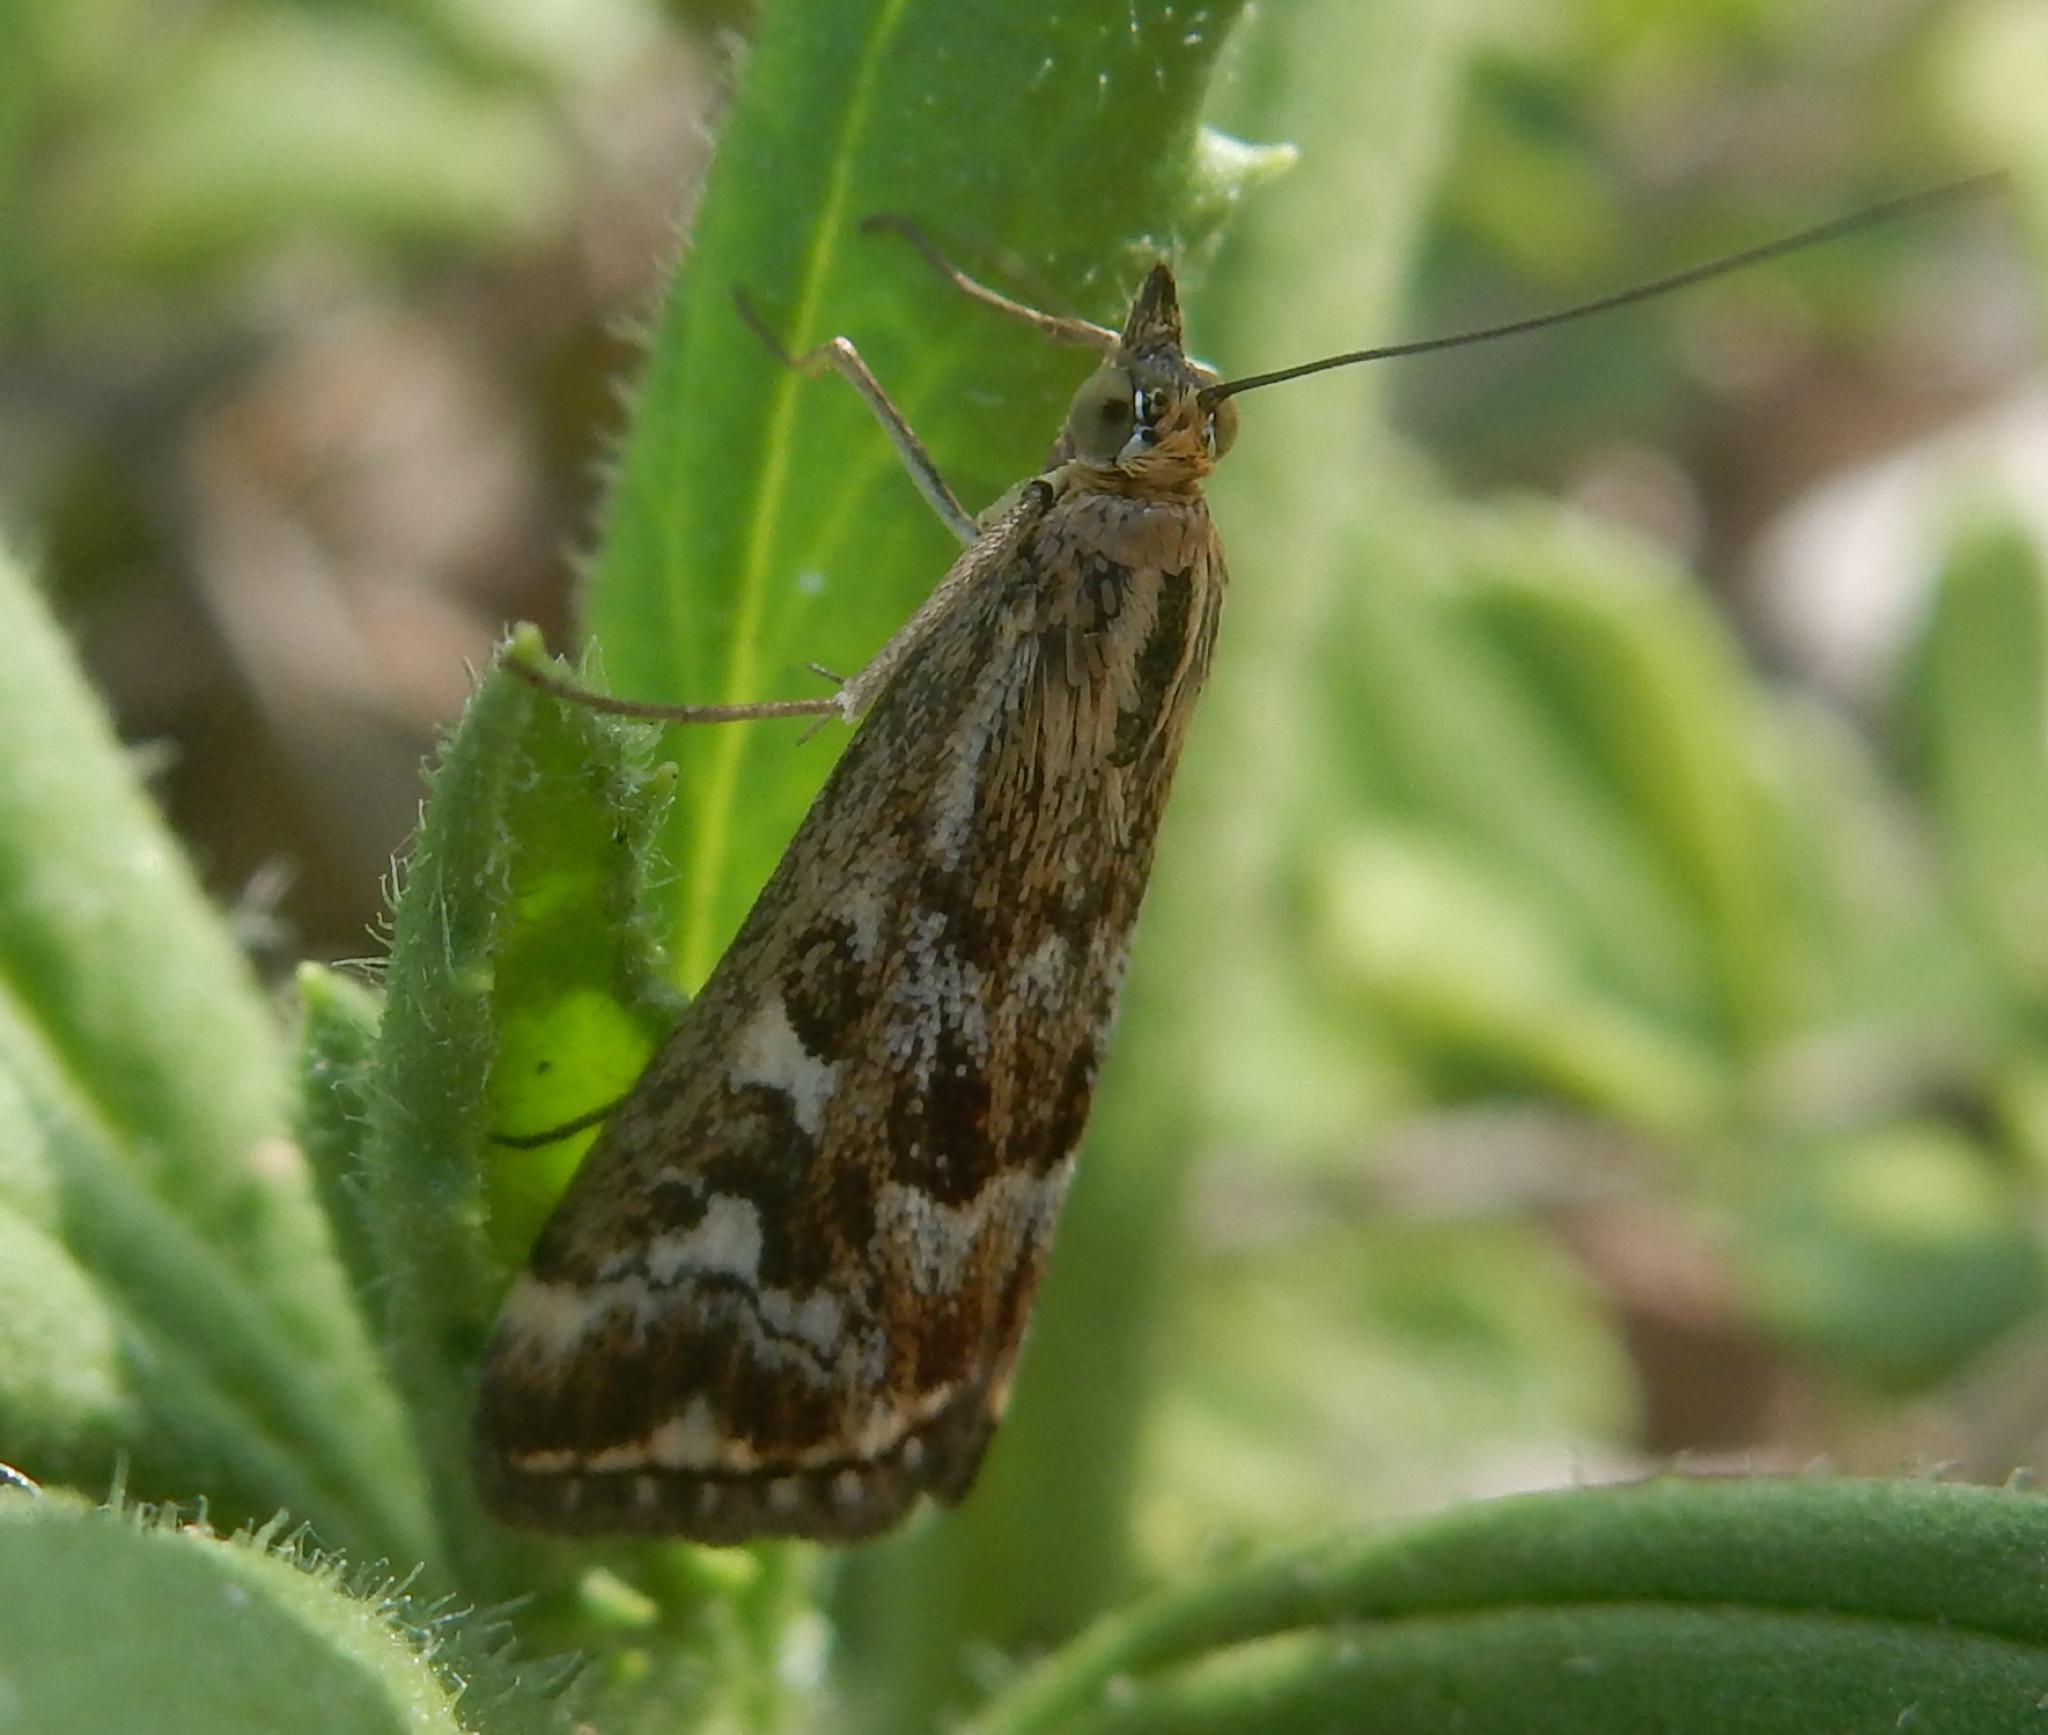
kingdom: Animalia
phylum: Arthropoda
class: Insecta
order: Lepidoptera
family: Crambidae
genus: Loxostege
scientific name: Loxostege frustalis
